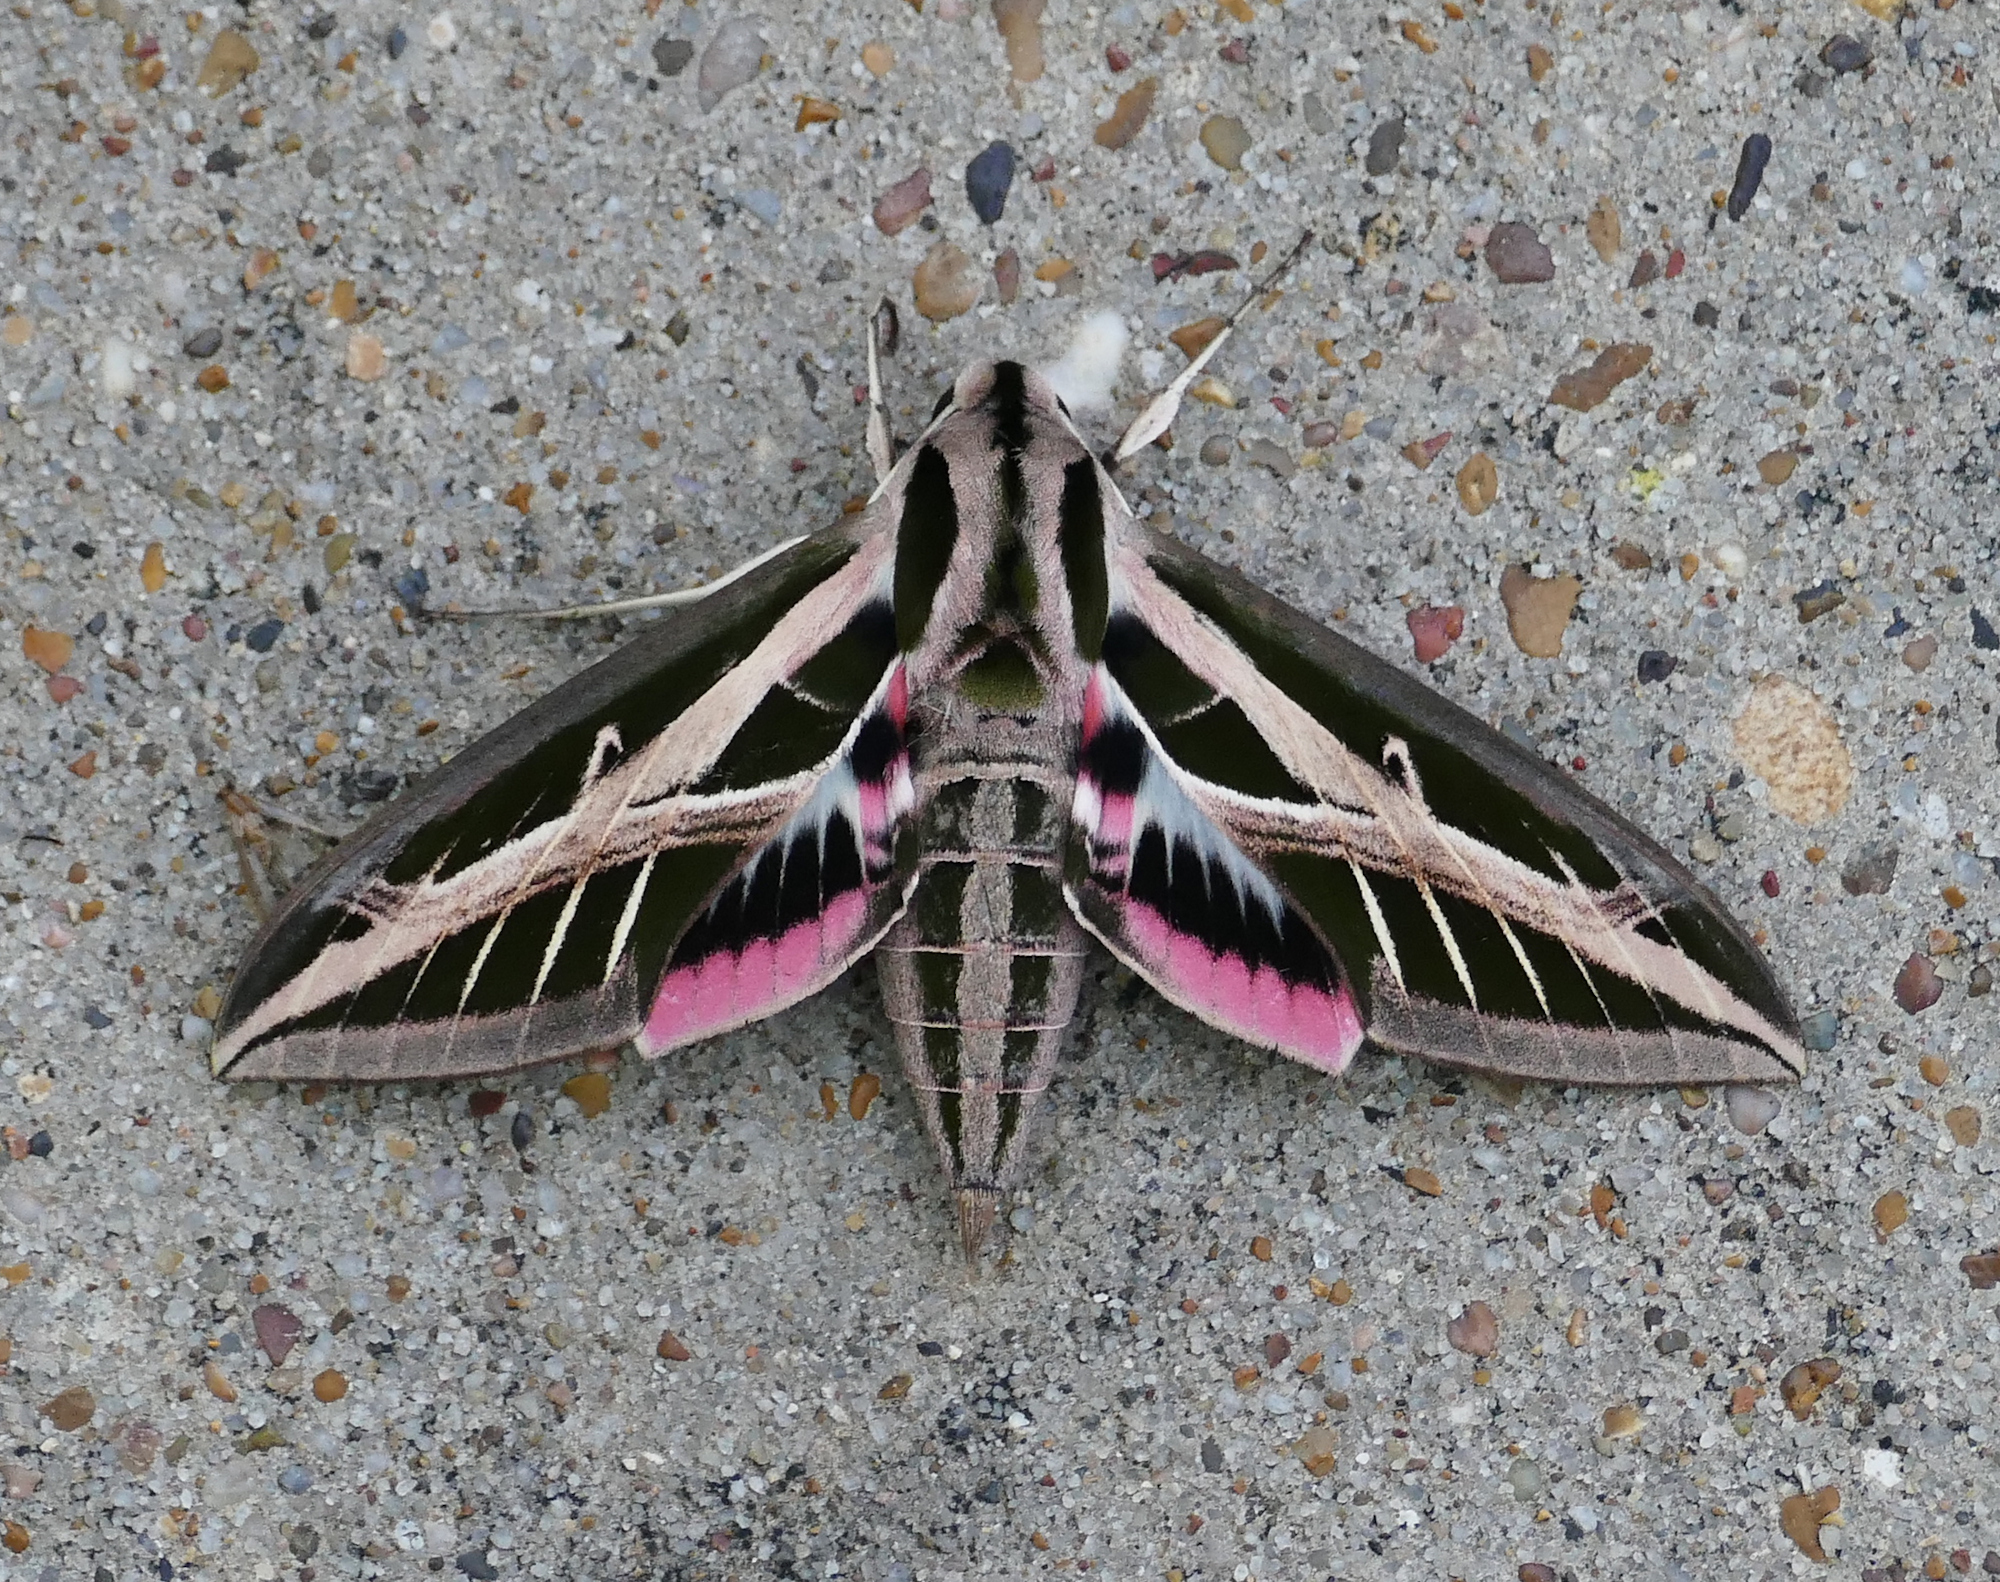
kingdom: Animalia
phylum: Arthropoda
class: Insecta
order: Lepidoptera
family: Sphingidae
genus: Eumorpha
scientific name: Eumorpha fasciatus
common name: Banded sphinx
